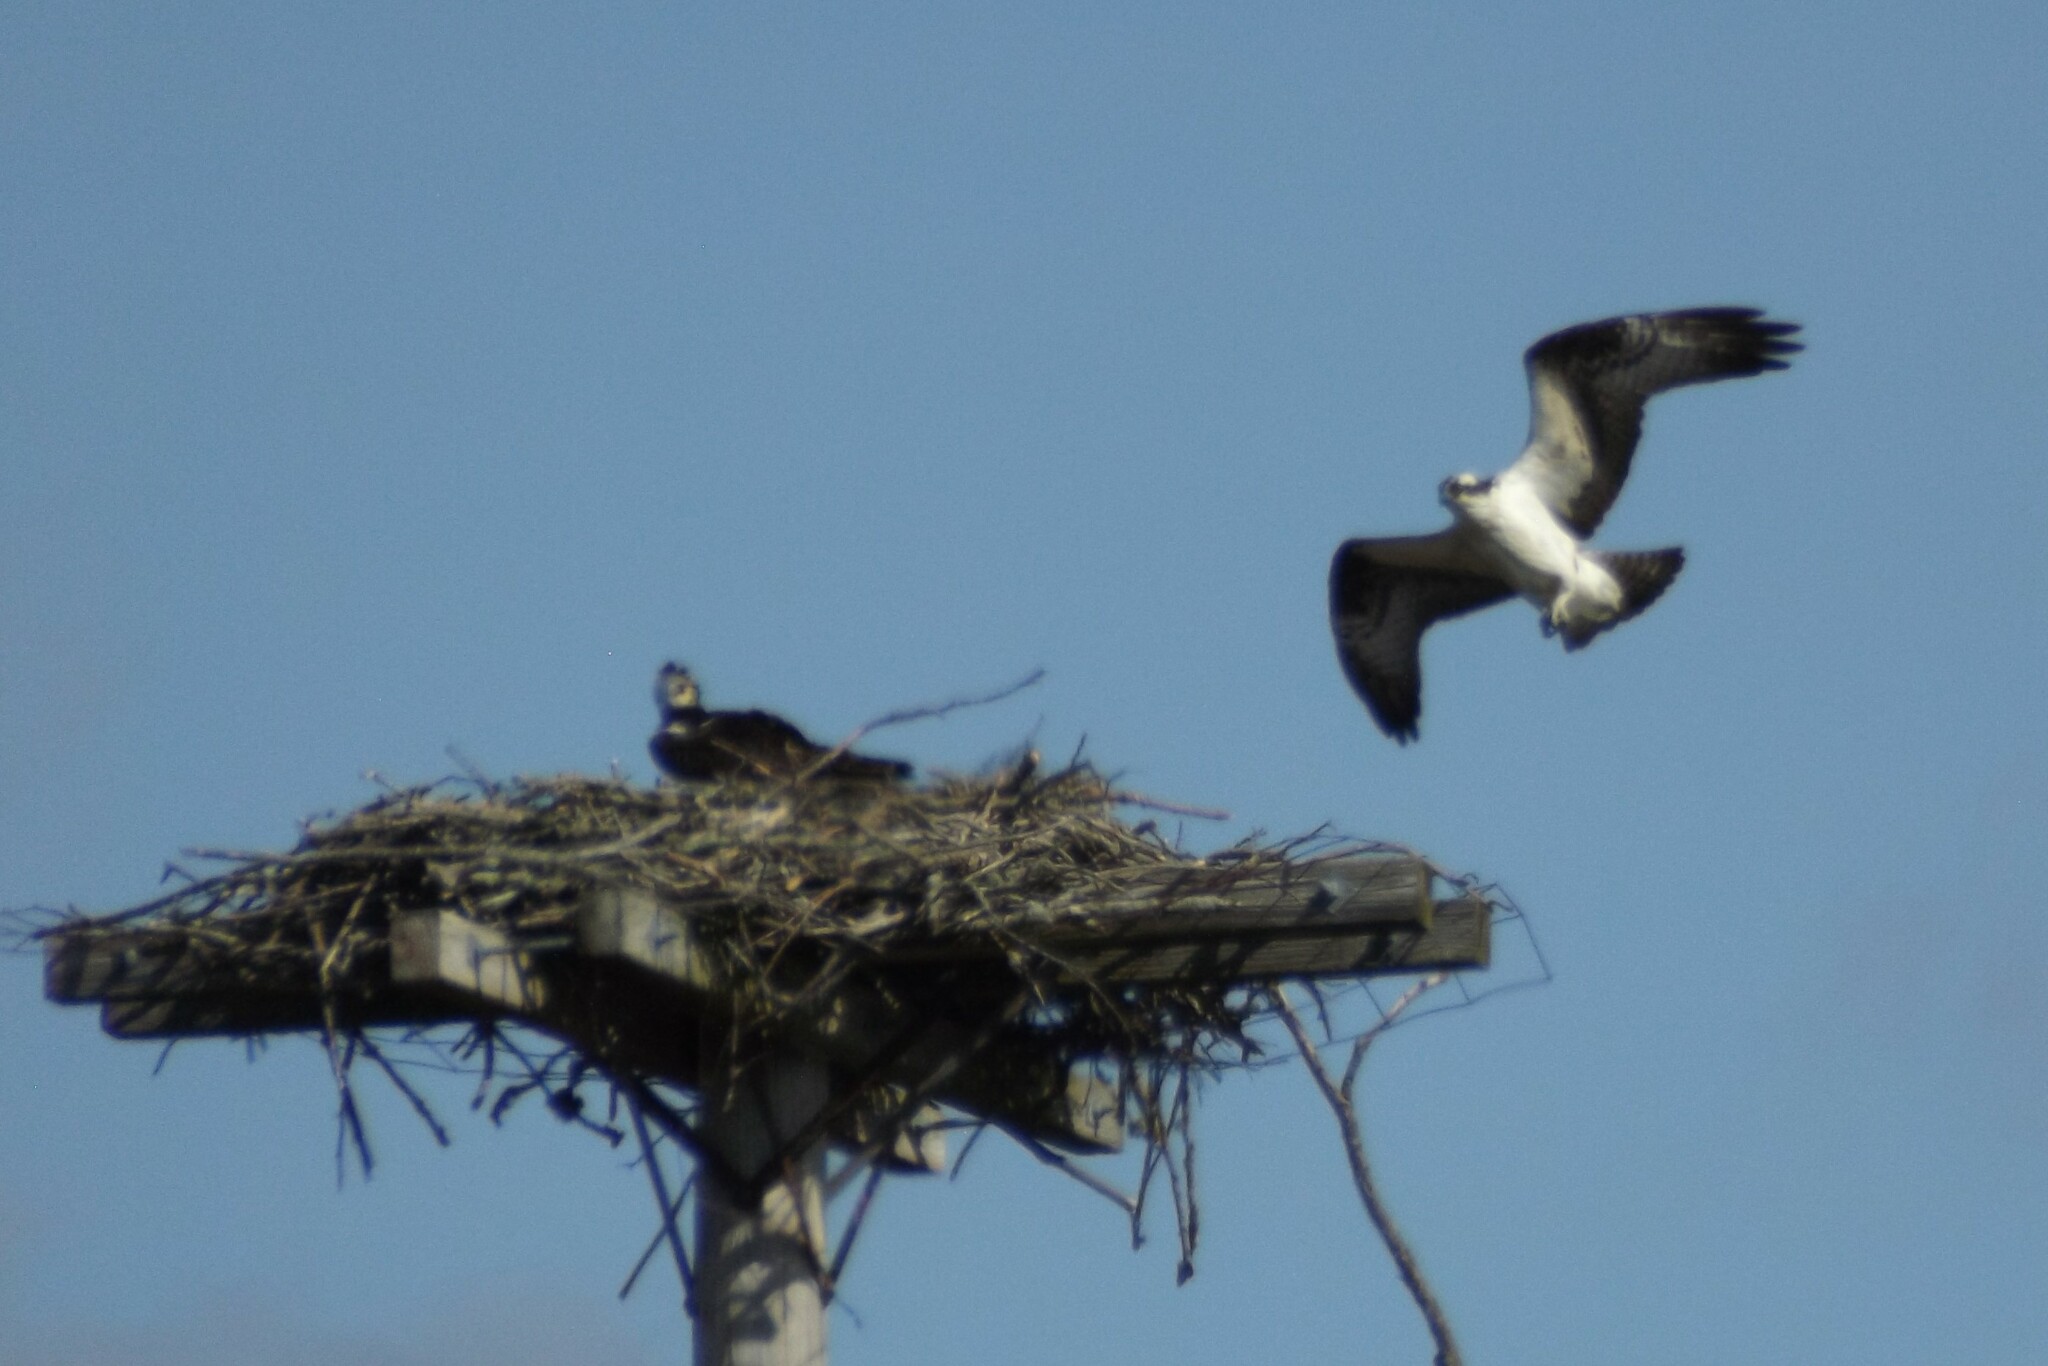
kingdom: Animalia
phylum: Chordata
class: Aves
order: Accipitriformes
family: Pandionidae
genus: Pandion
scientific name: Pandion haliaetus
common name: Osprey
